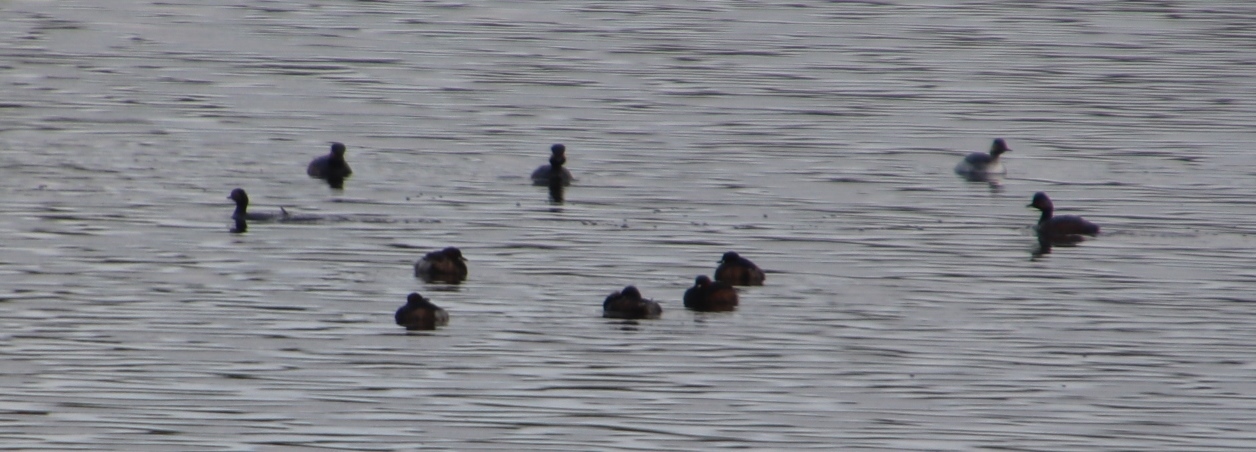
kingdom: Animalia
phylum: Chordata
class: Aves
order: Podicipediformes
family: Podicipedidae
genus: Tachybaptus
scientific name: Tachybaptus ruficollis
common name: Little grebe
